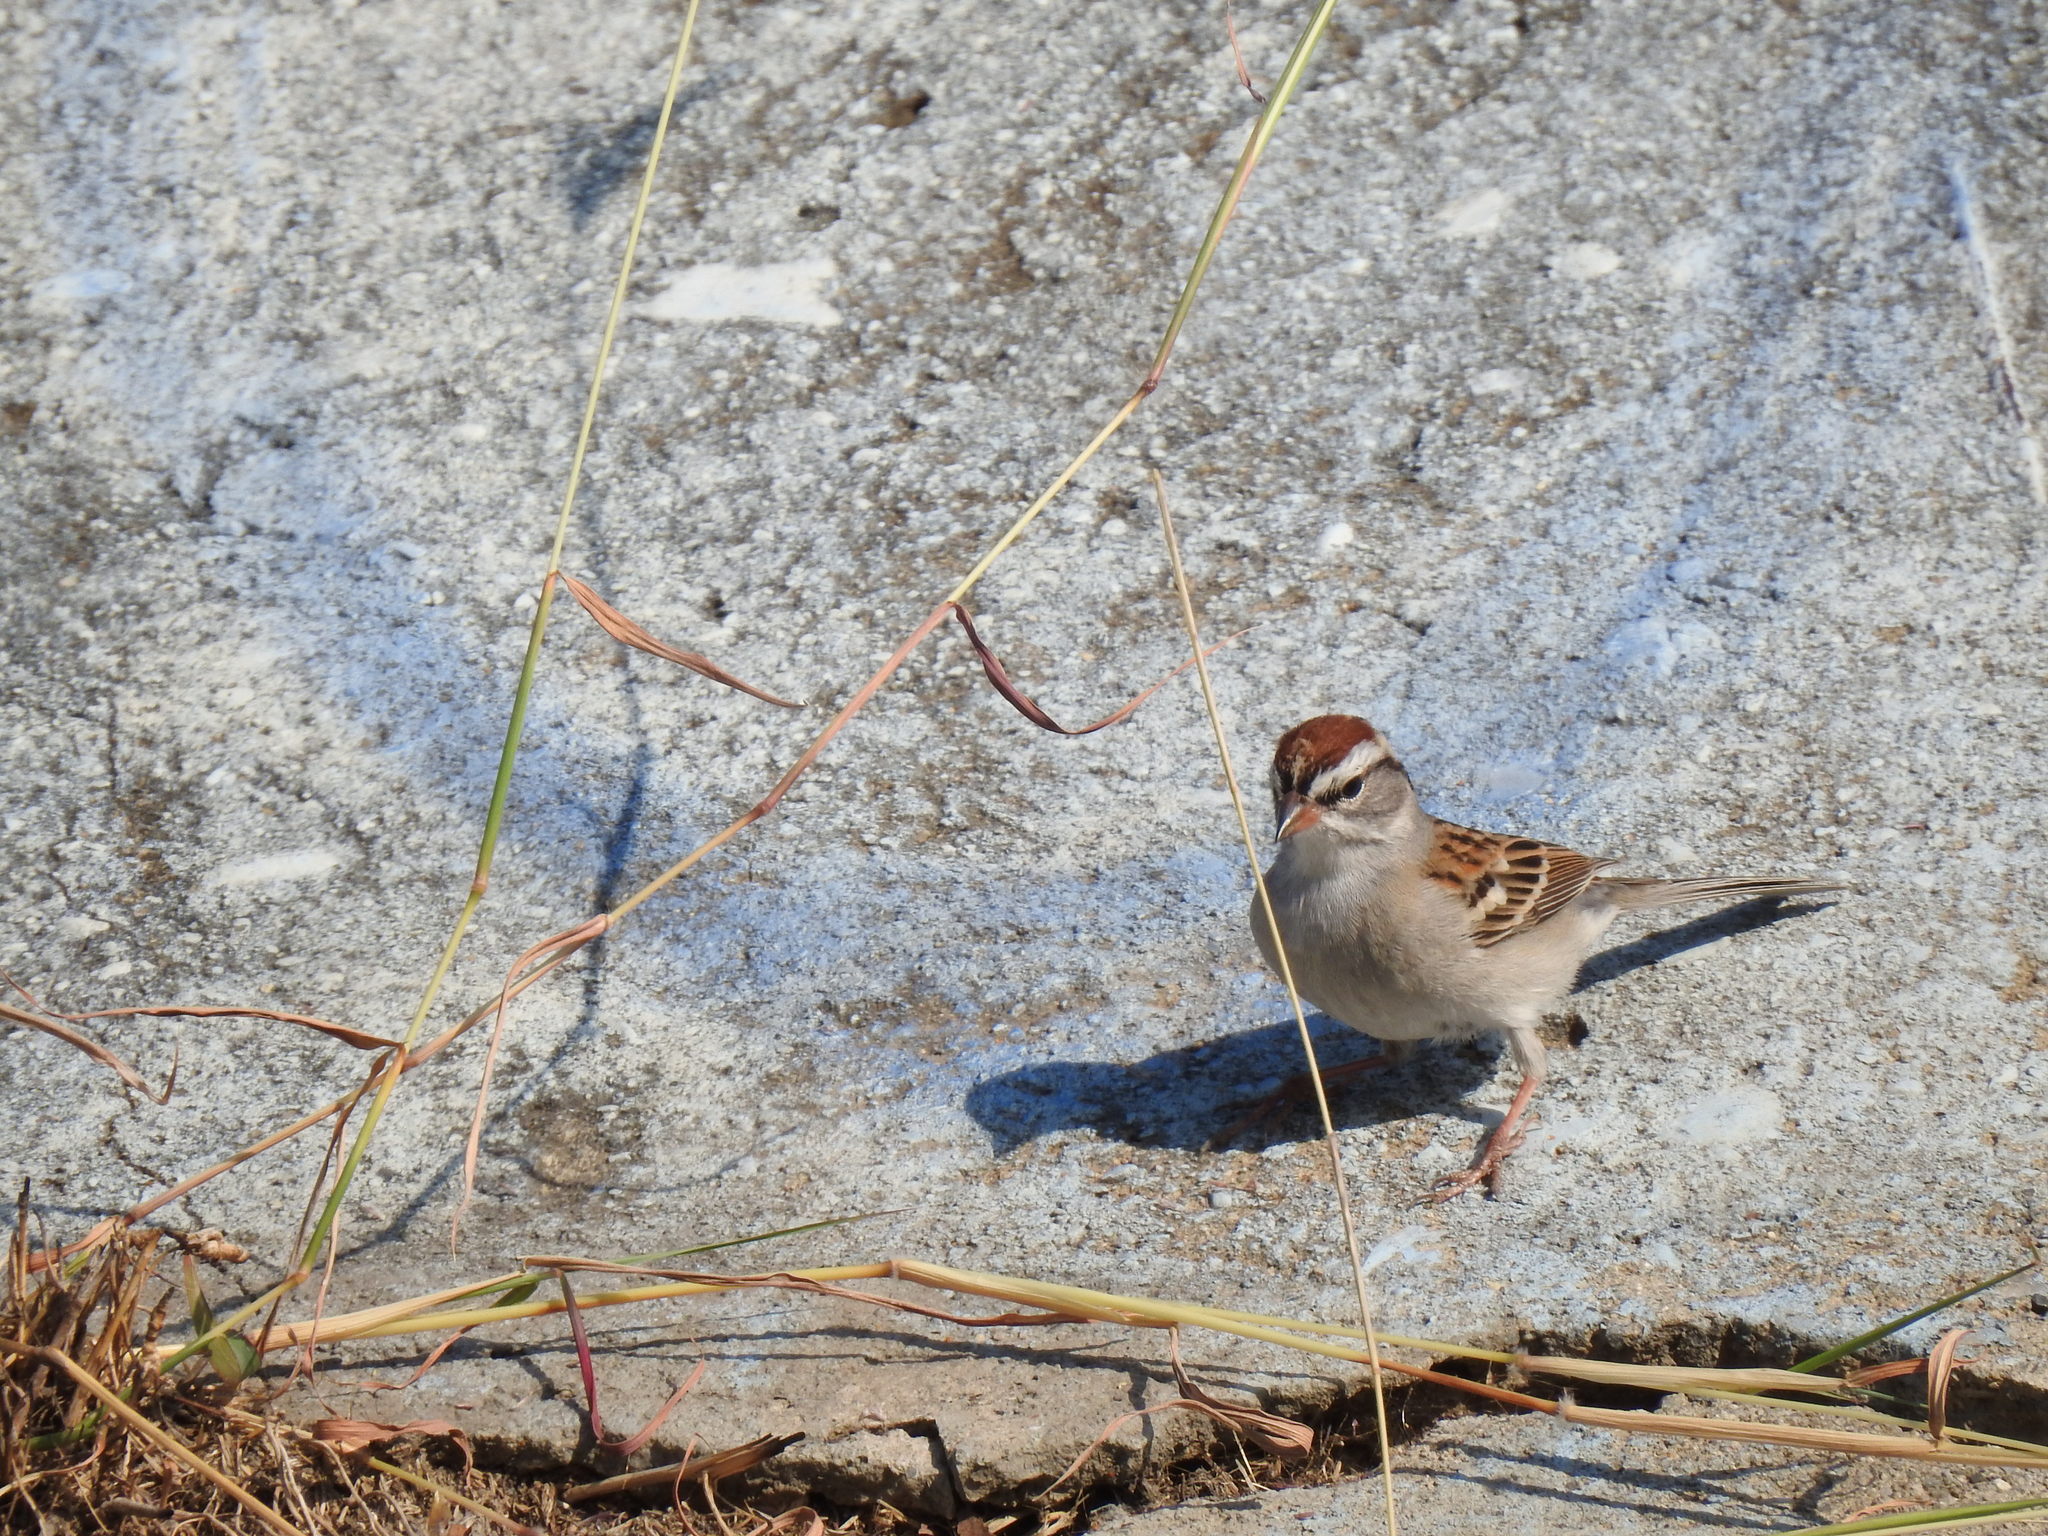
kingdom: Animalia
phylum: Chordata
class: Aves
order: Passeriformes
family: Passerellidae
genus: Spizella
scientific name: Spizella passerina
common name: Chipping sparrow
